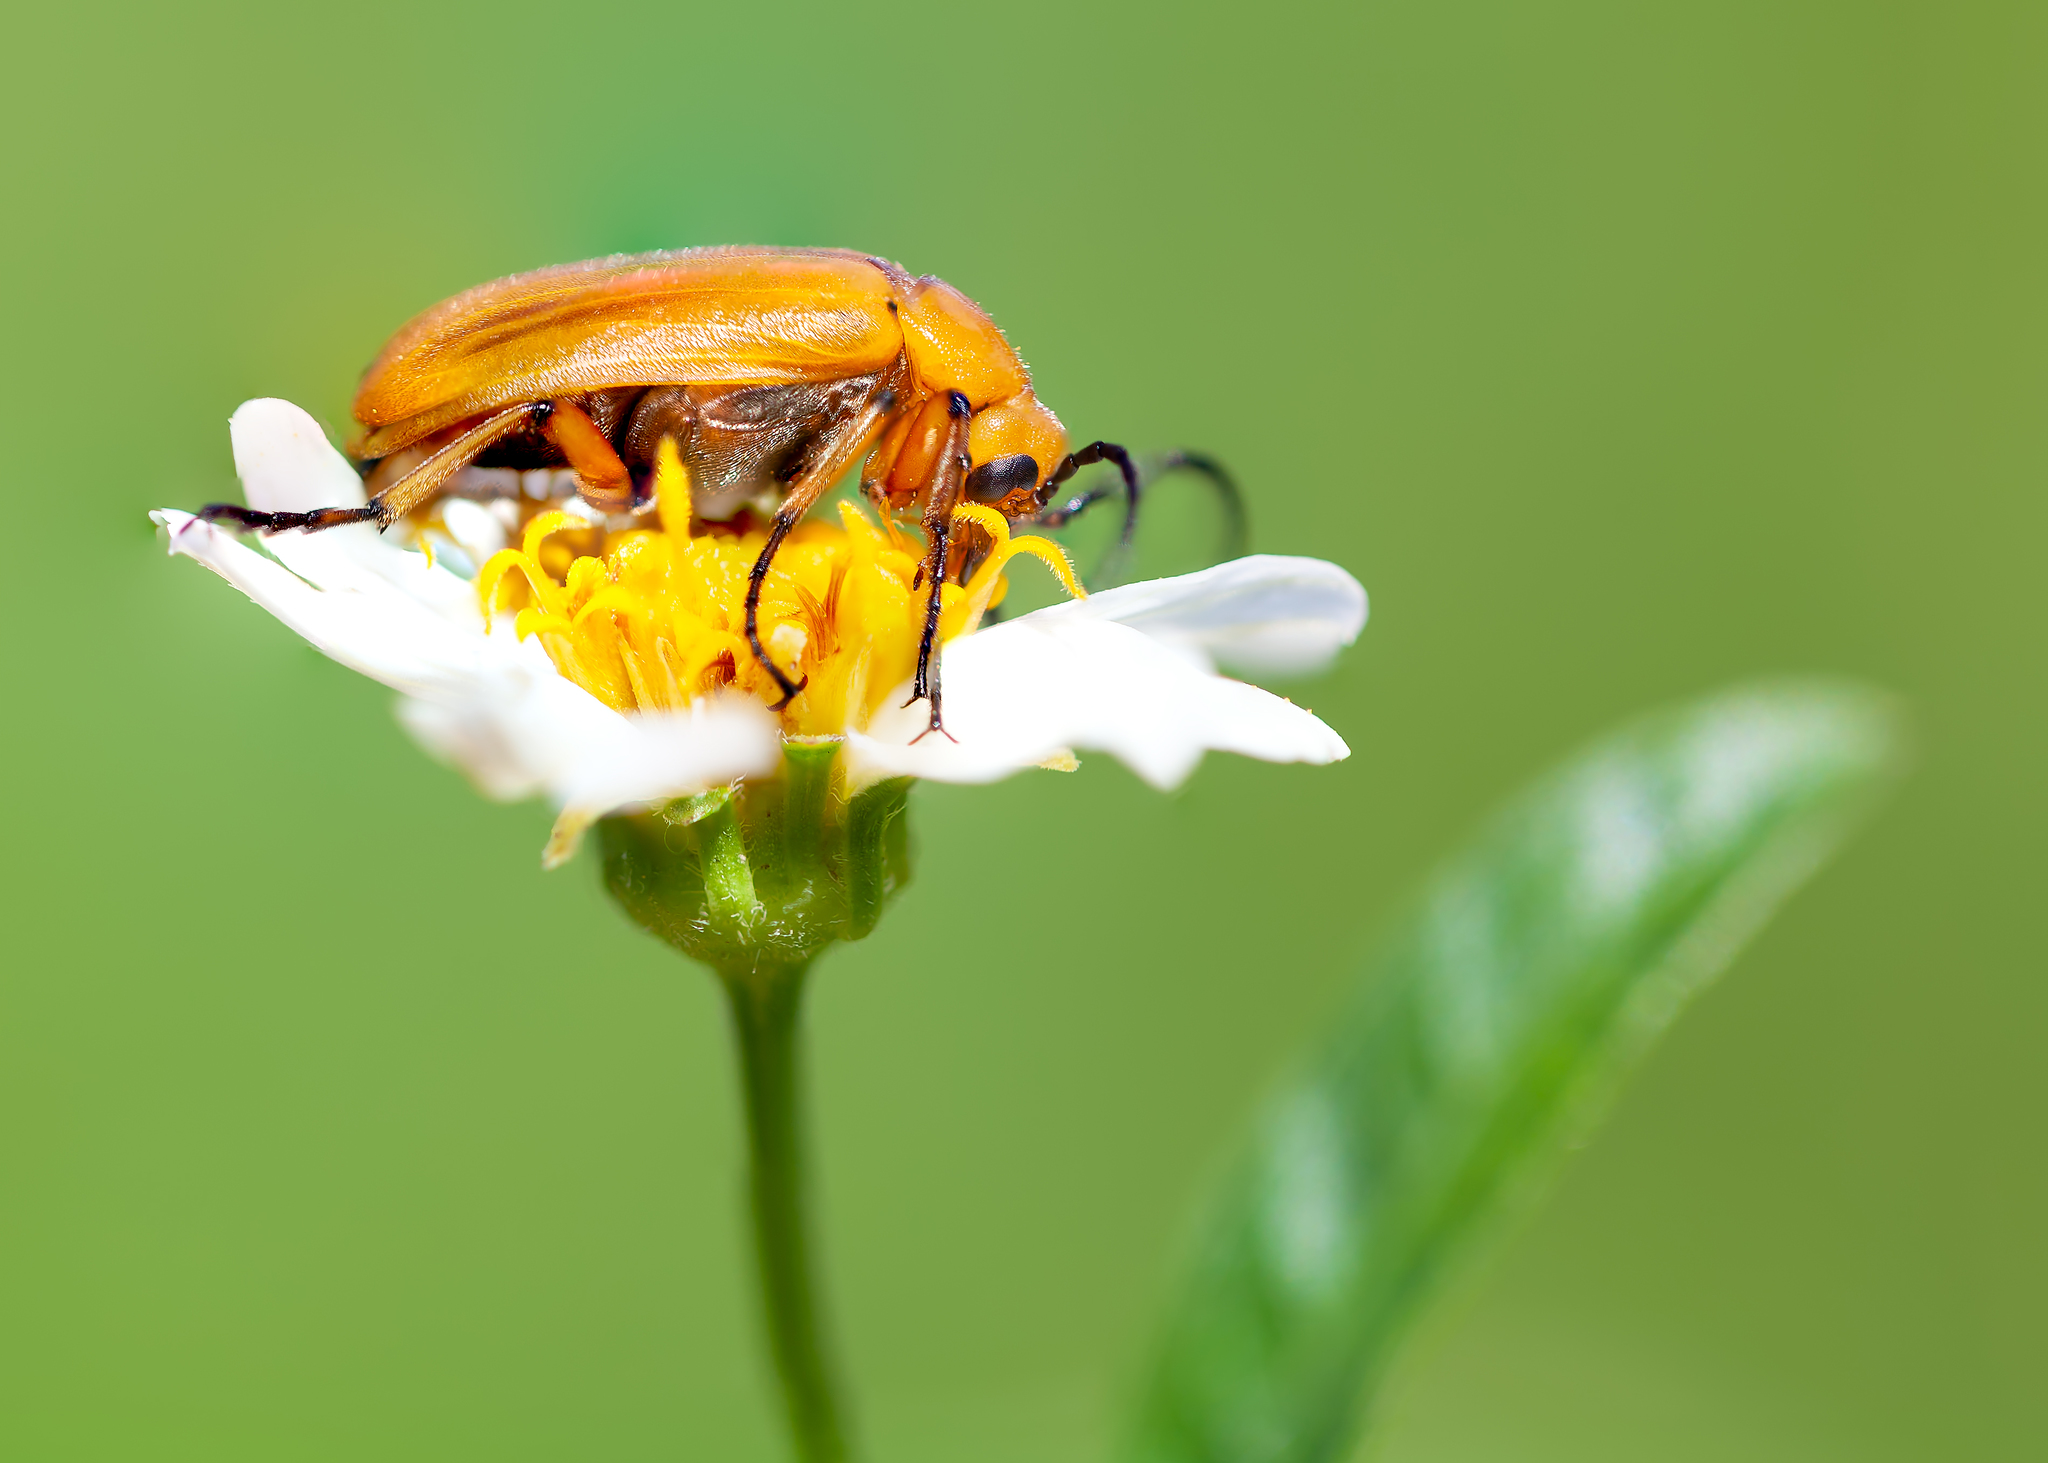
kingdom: Animalia
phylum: Arthropoda
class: Insecta
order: Coleoptera
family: Meloidae
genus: Nemognatha
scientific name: Nemognatha punctulata
